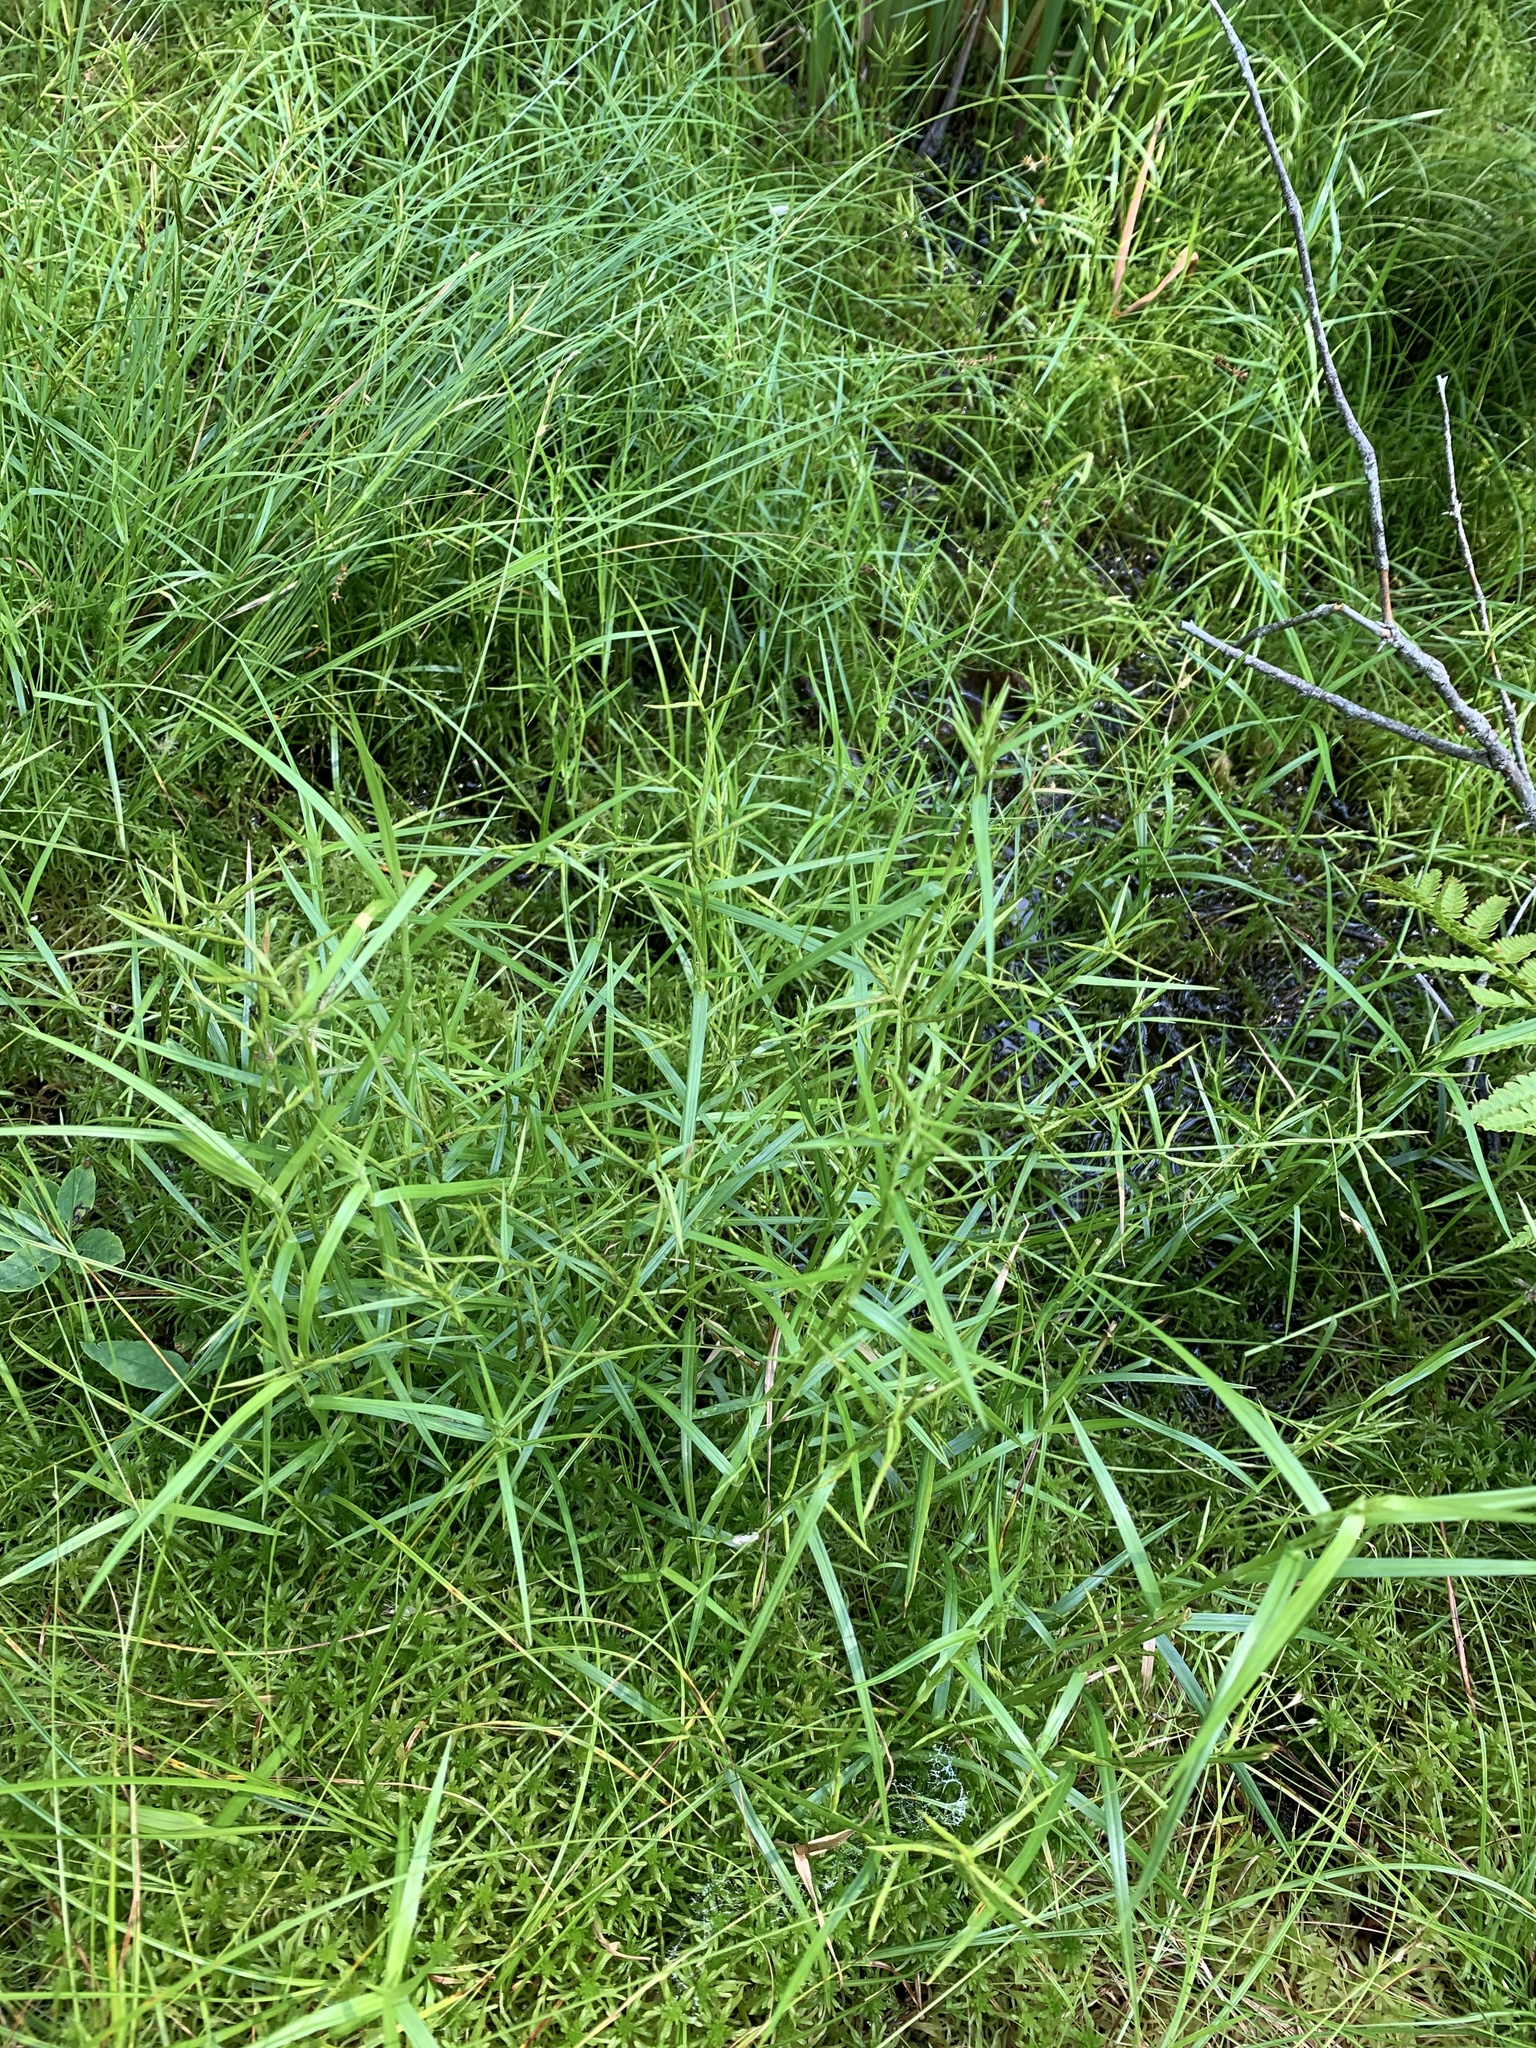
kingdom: Plantae
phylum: Tracheophyta
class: Liliopsida
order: Poales
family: Cyperaceae
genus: Dulichium
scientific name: Dulichium arundinaceum
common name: Three-way sedge
